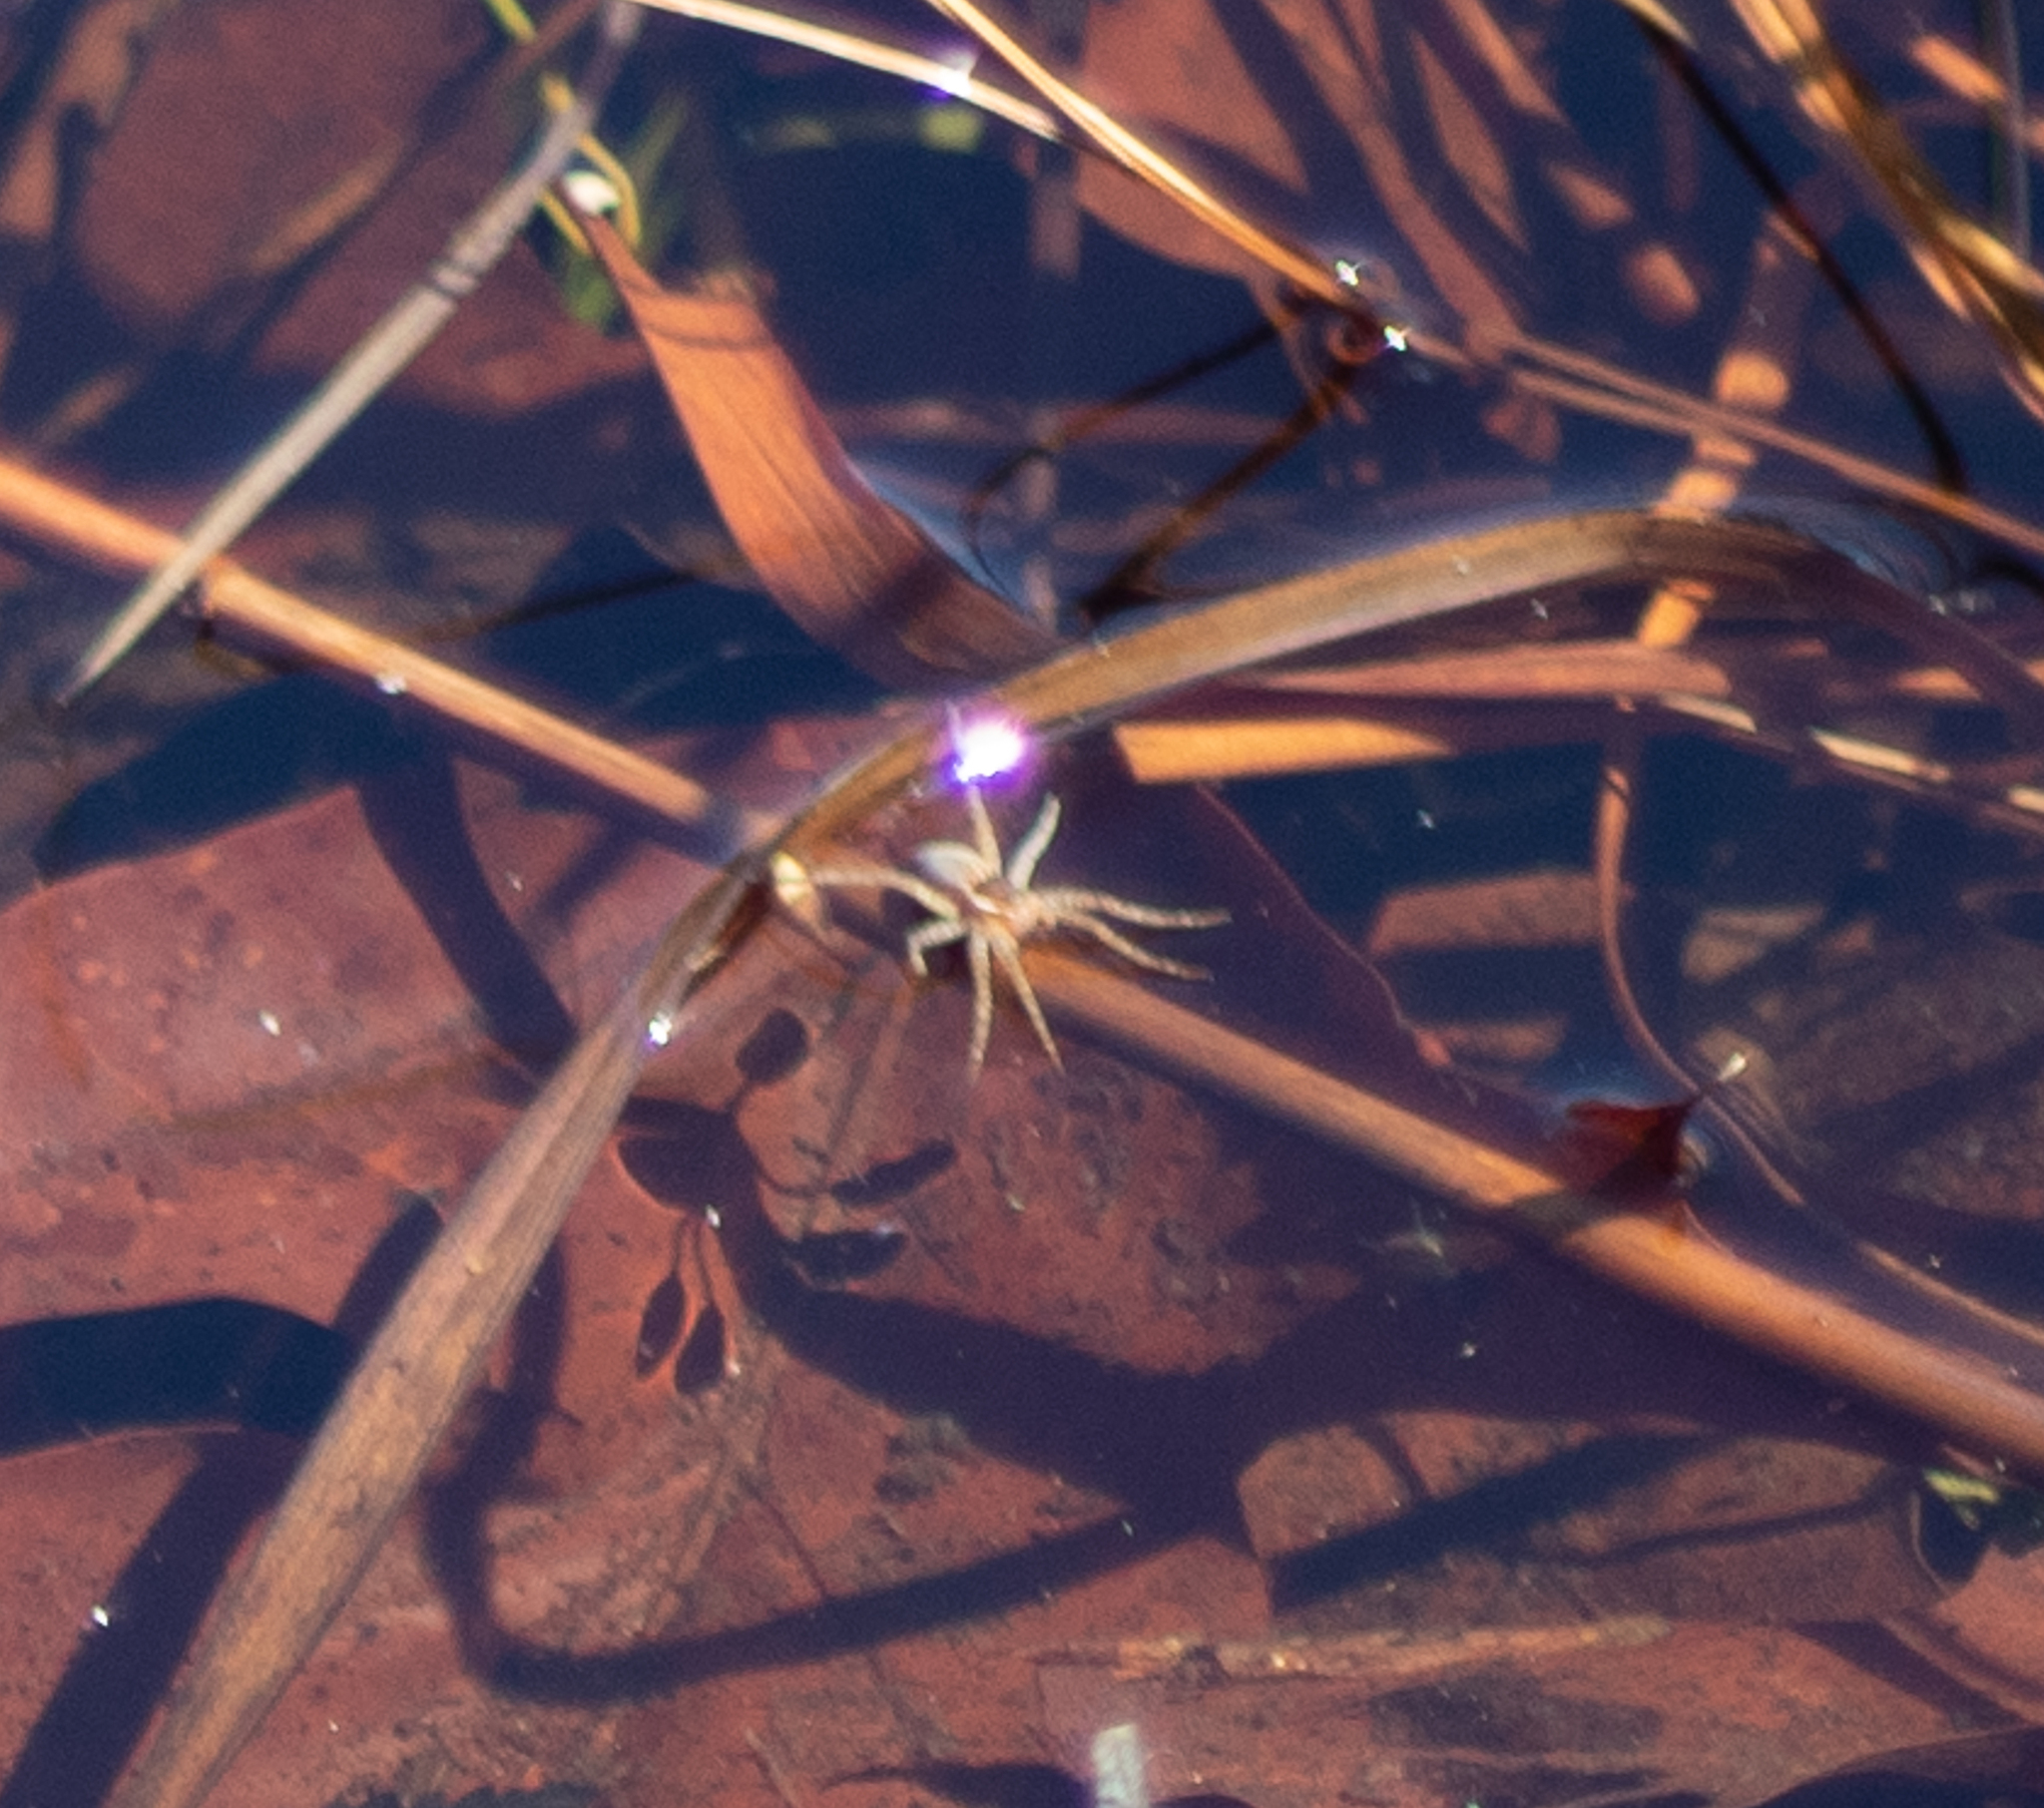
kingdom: Animalia
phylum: Arthropoda
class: Arachnida
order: Araneae
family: Pisauridae
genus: Dolomedes
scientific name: Dolomedes triton
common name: Six-spotted fishing spider
